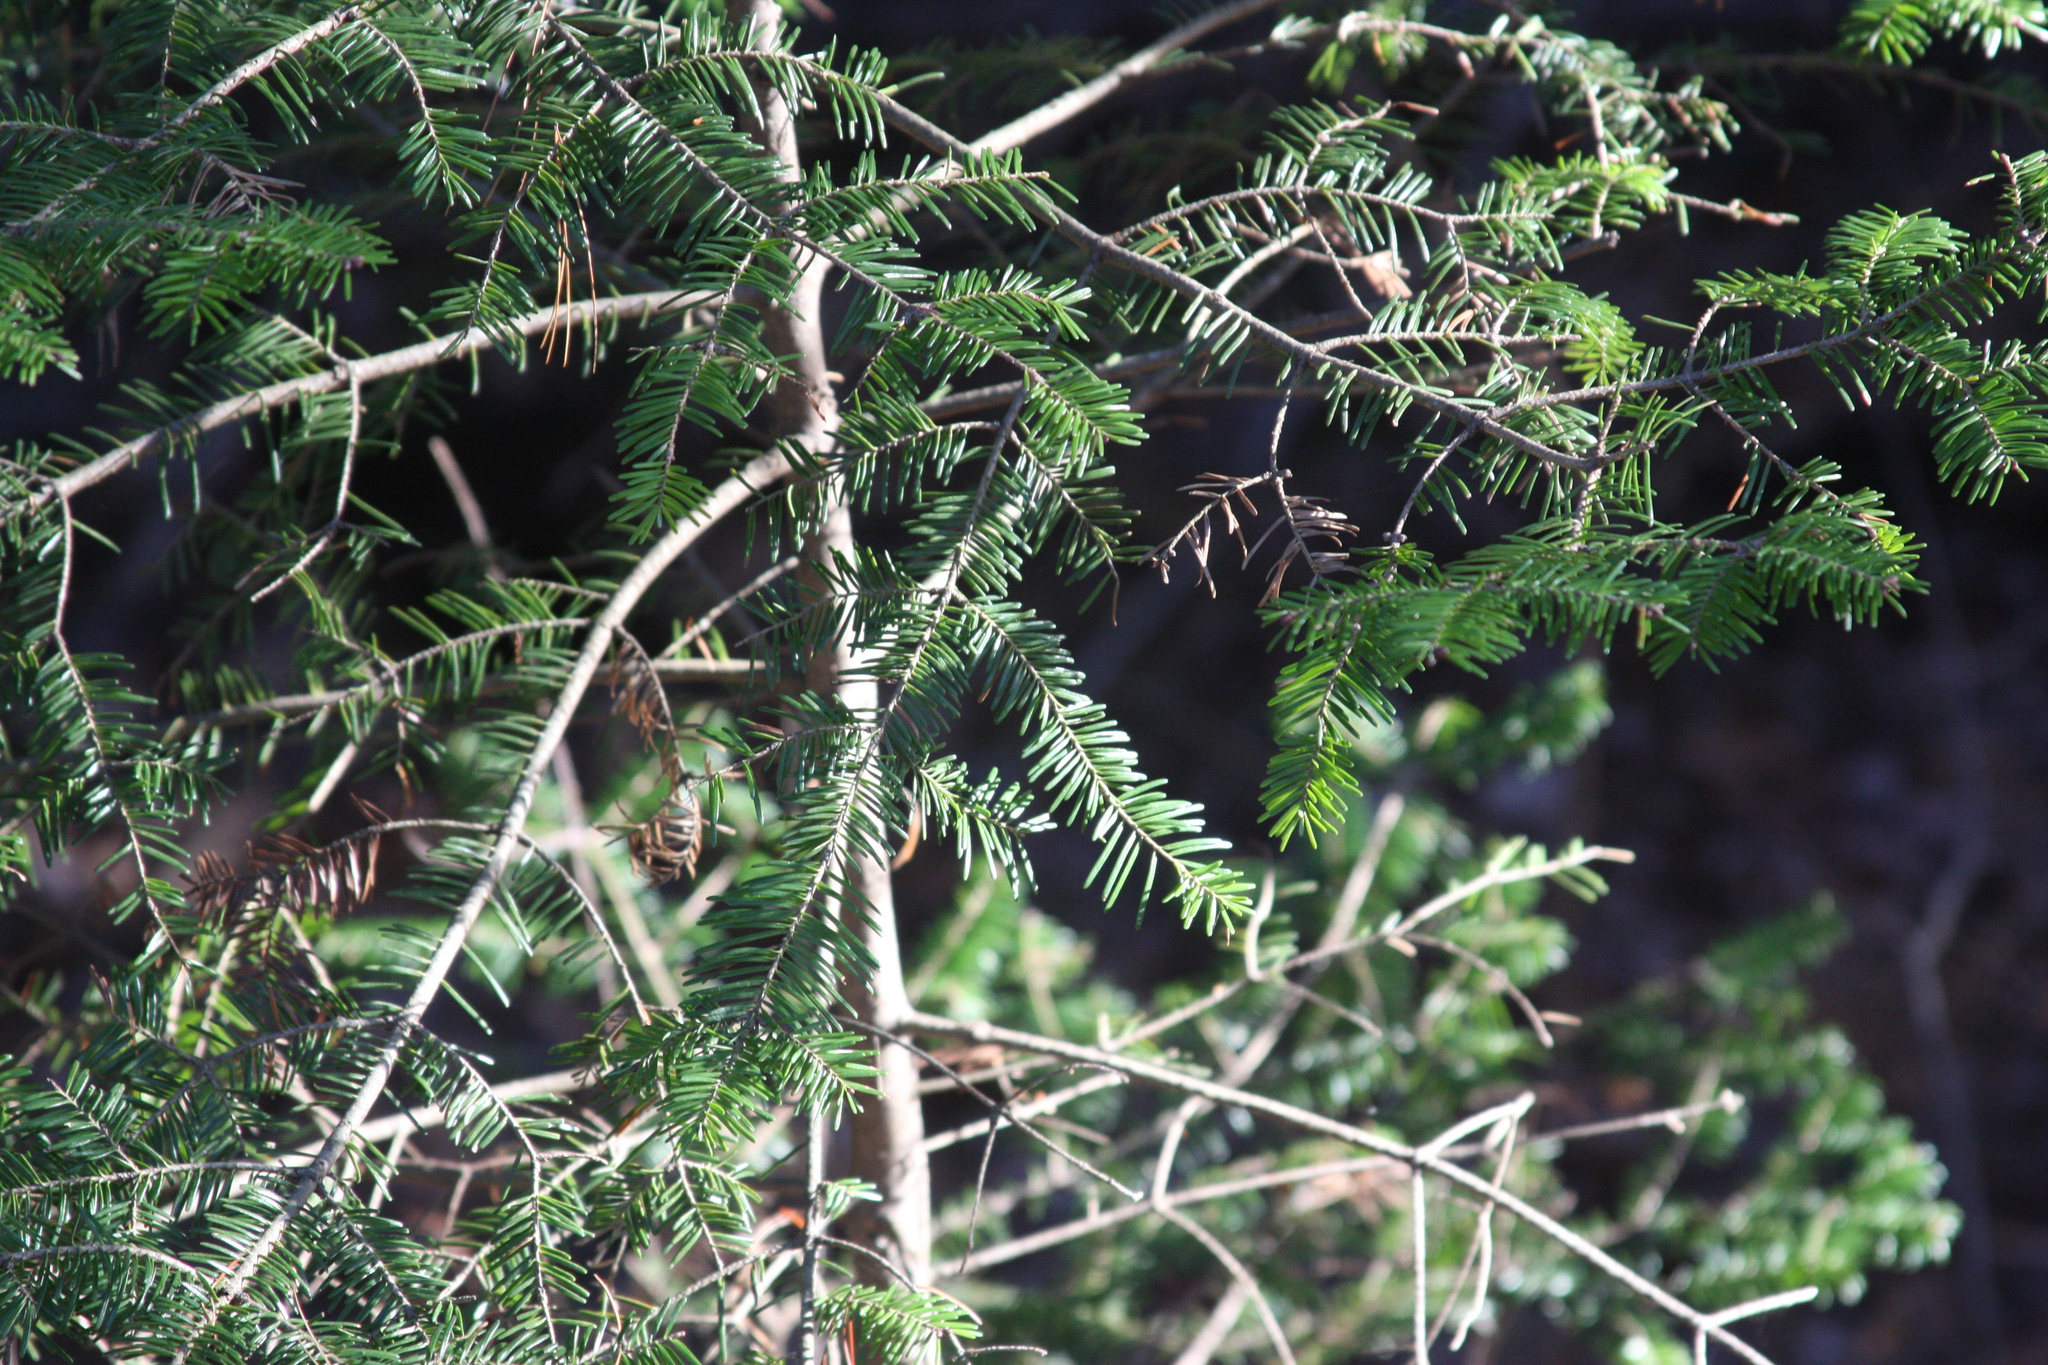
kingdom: Plantae
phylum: Tracheophyta
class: Pinopsida
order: Pinales
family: Pinaceae
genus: Abies
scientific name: Abies balsamea
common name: Balsam fir
